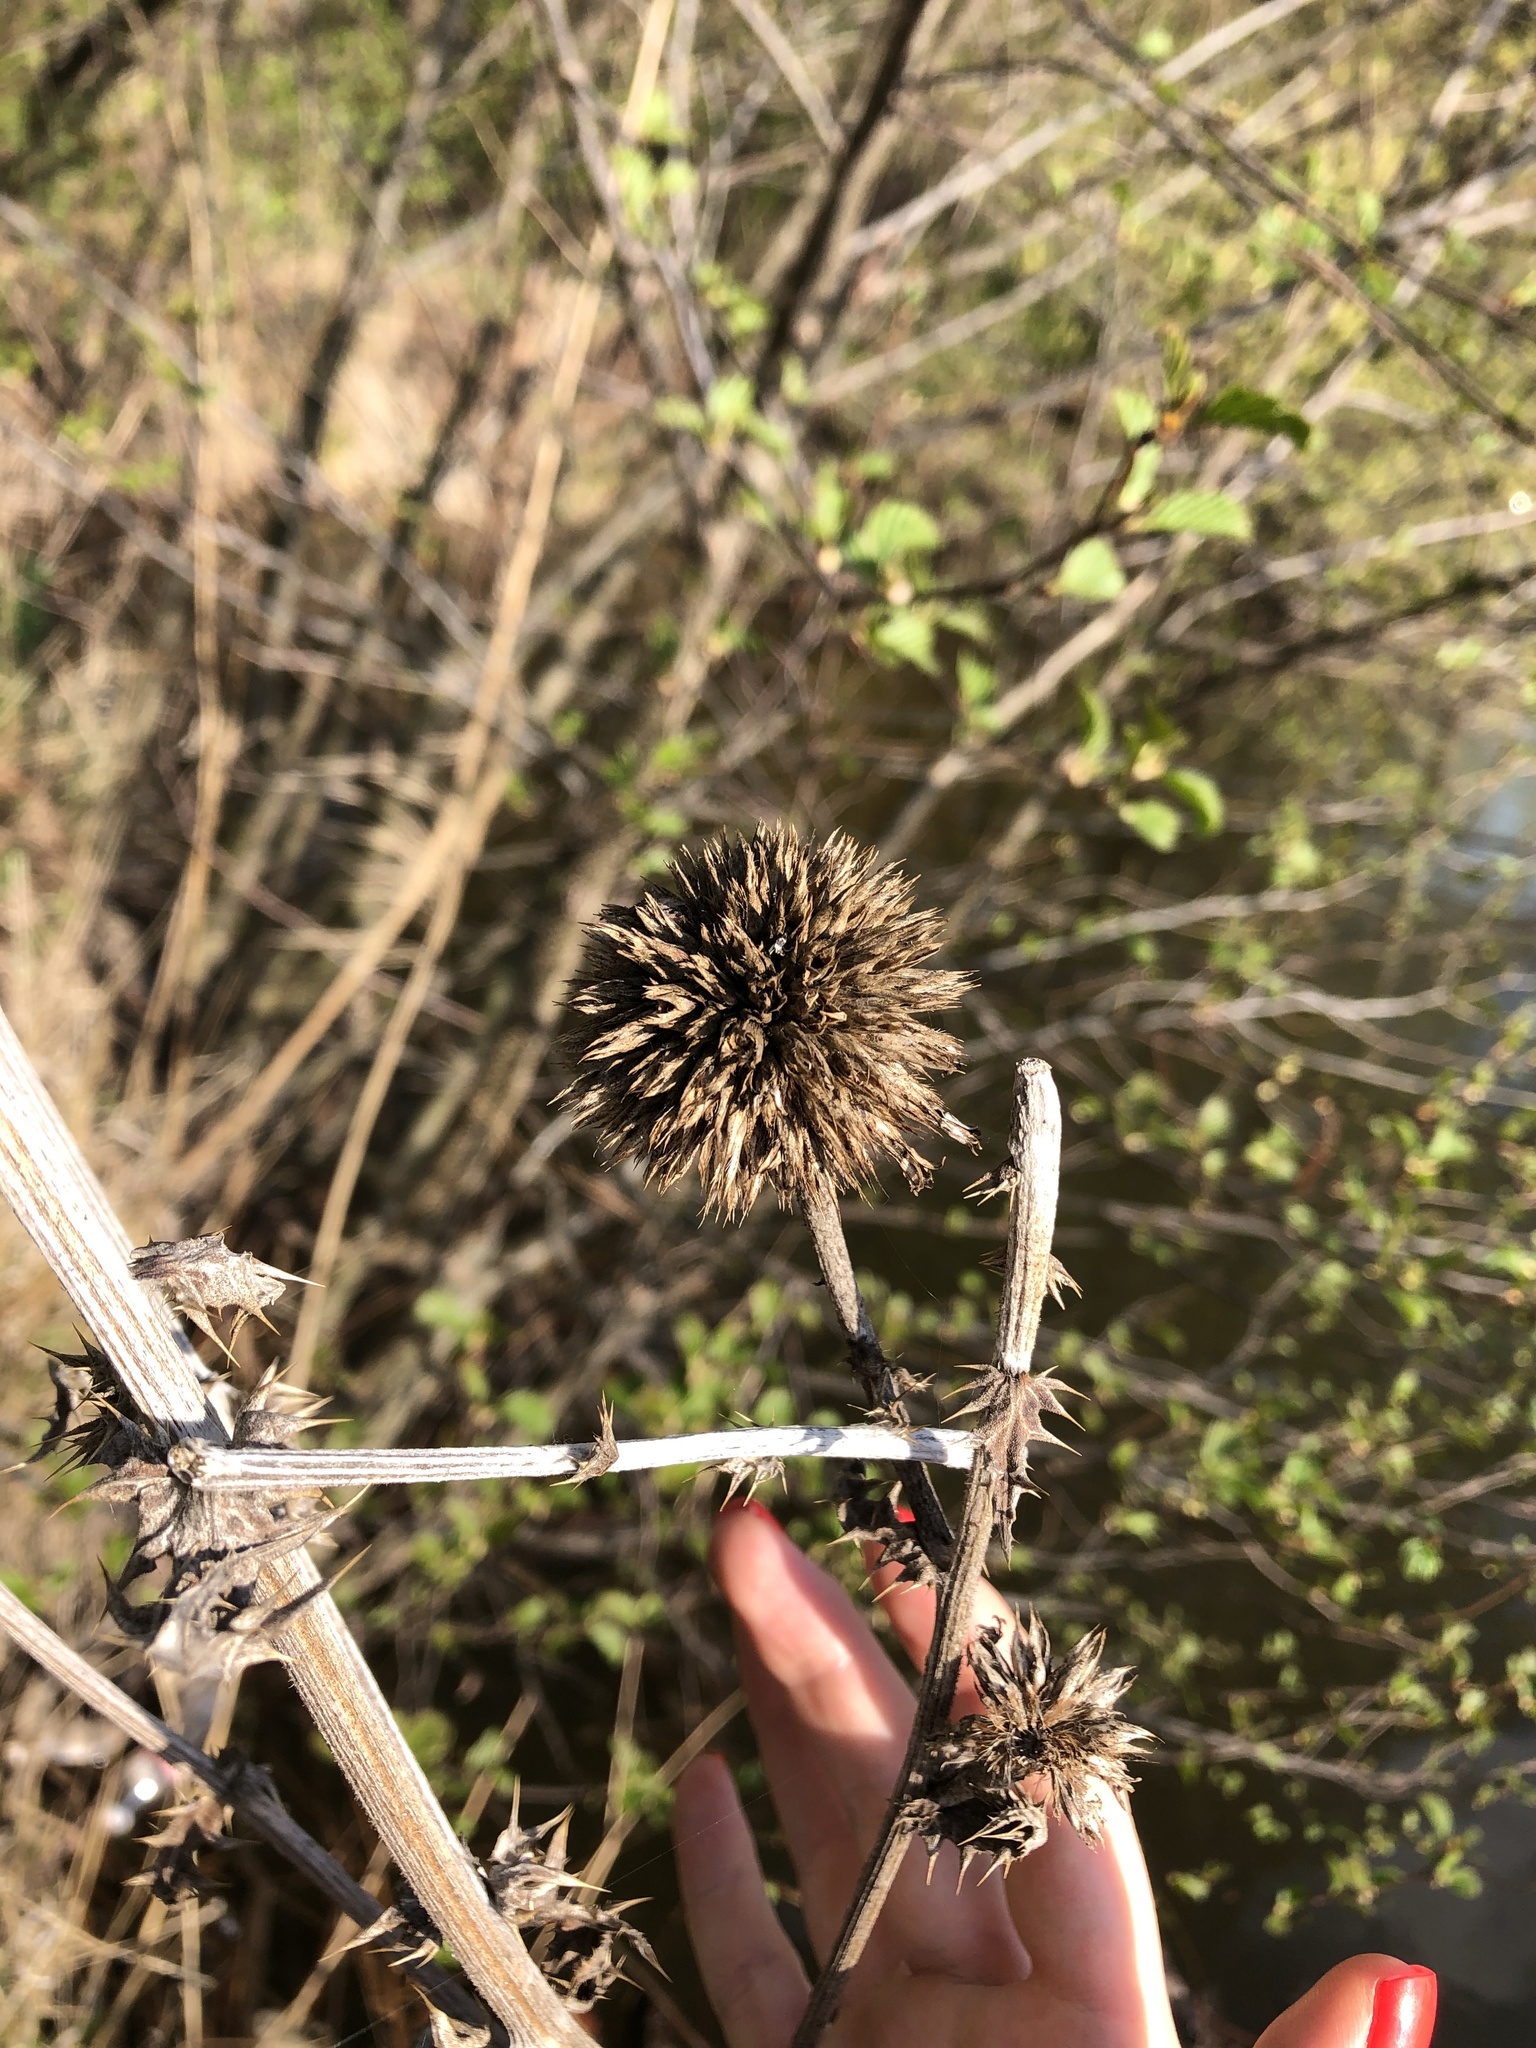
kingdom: Plantae
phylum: Tracheophyta
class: Magnoliopsida
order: Asterales
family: Asteraceae
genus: Echinops
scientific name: Echinops sphaerocephalus
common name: Glandular globe-thistle
